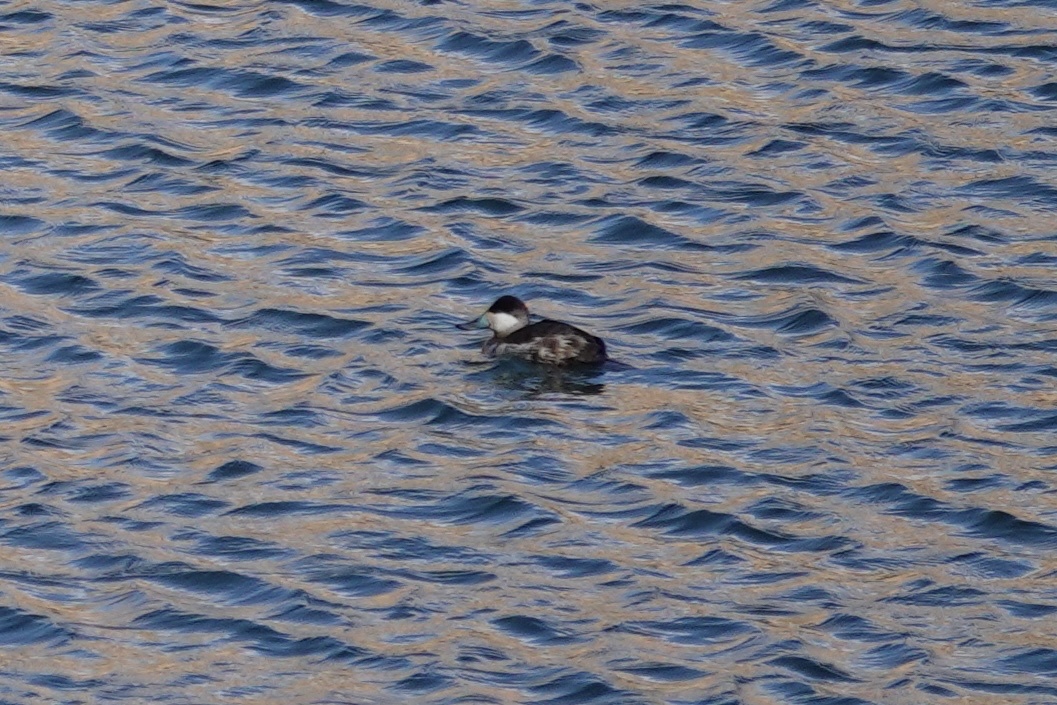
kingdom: Animalia
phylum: Chordata
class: Aves
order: Anseriformes
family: Anatidae
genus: Oxyura
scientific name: Oxyura jamaicensis
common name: Ruddy duck
